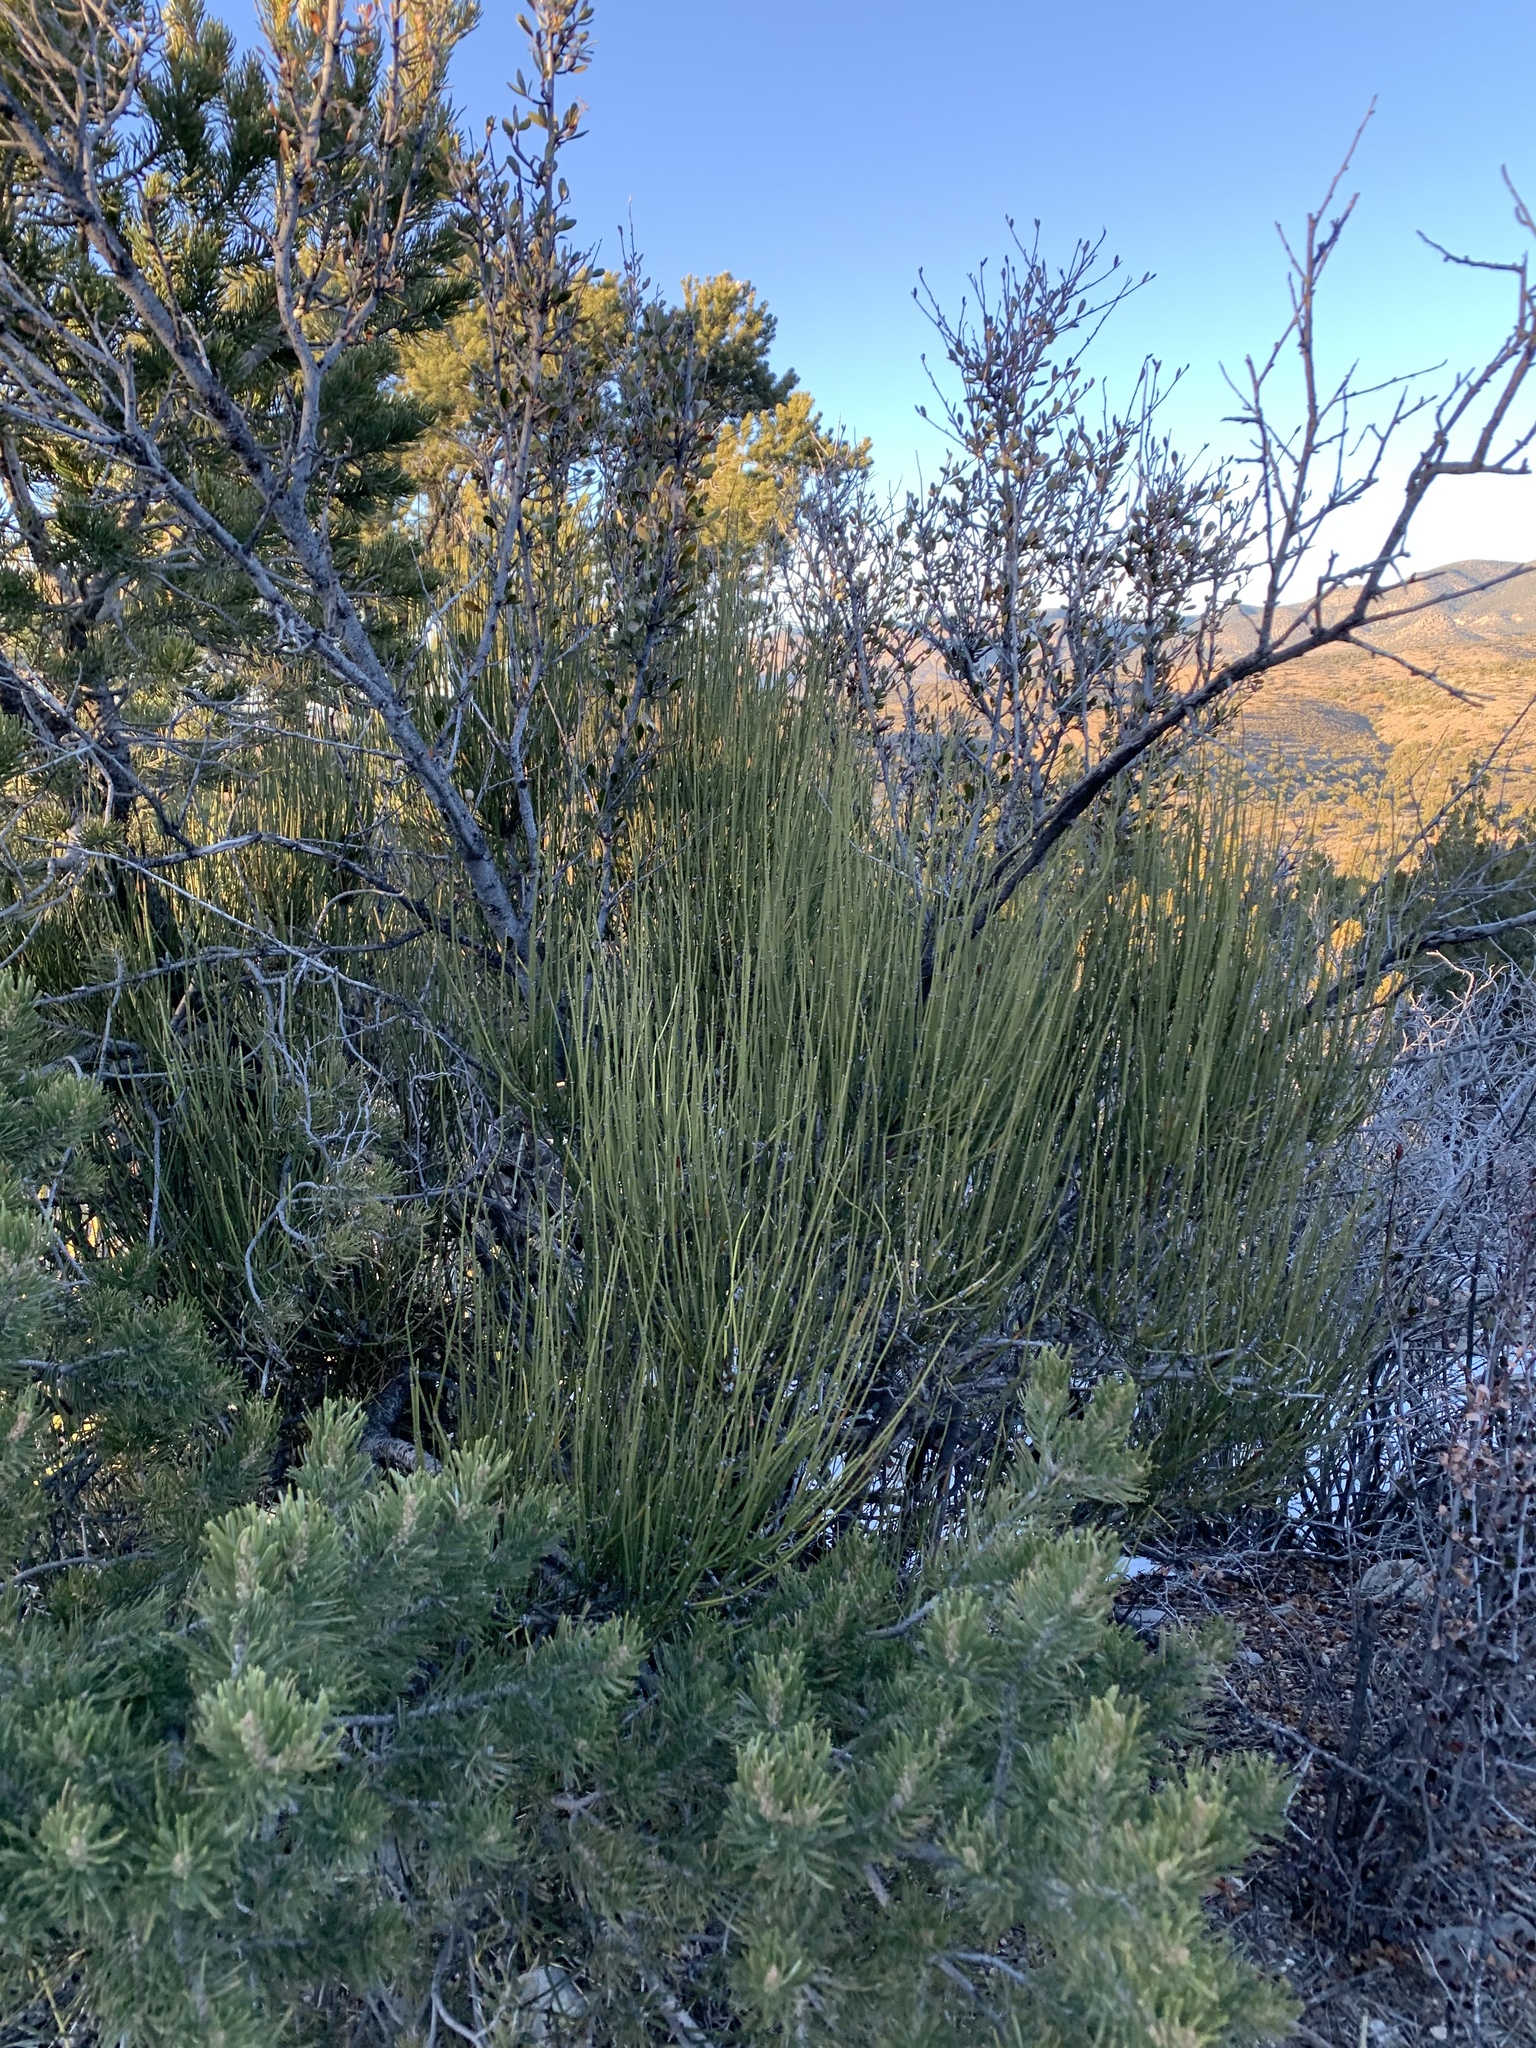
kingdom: Plantae
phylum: Tracheophyta
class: Gnetopsida
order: Ephedrales
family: Ephedraceae
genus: Ephedra
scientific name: Ephedra viridis
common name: Green ephedra
